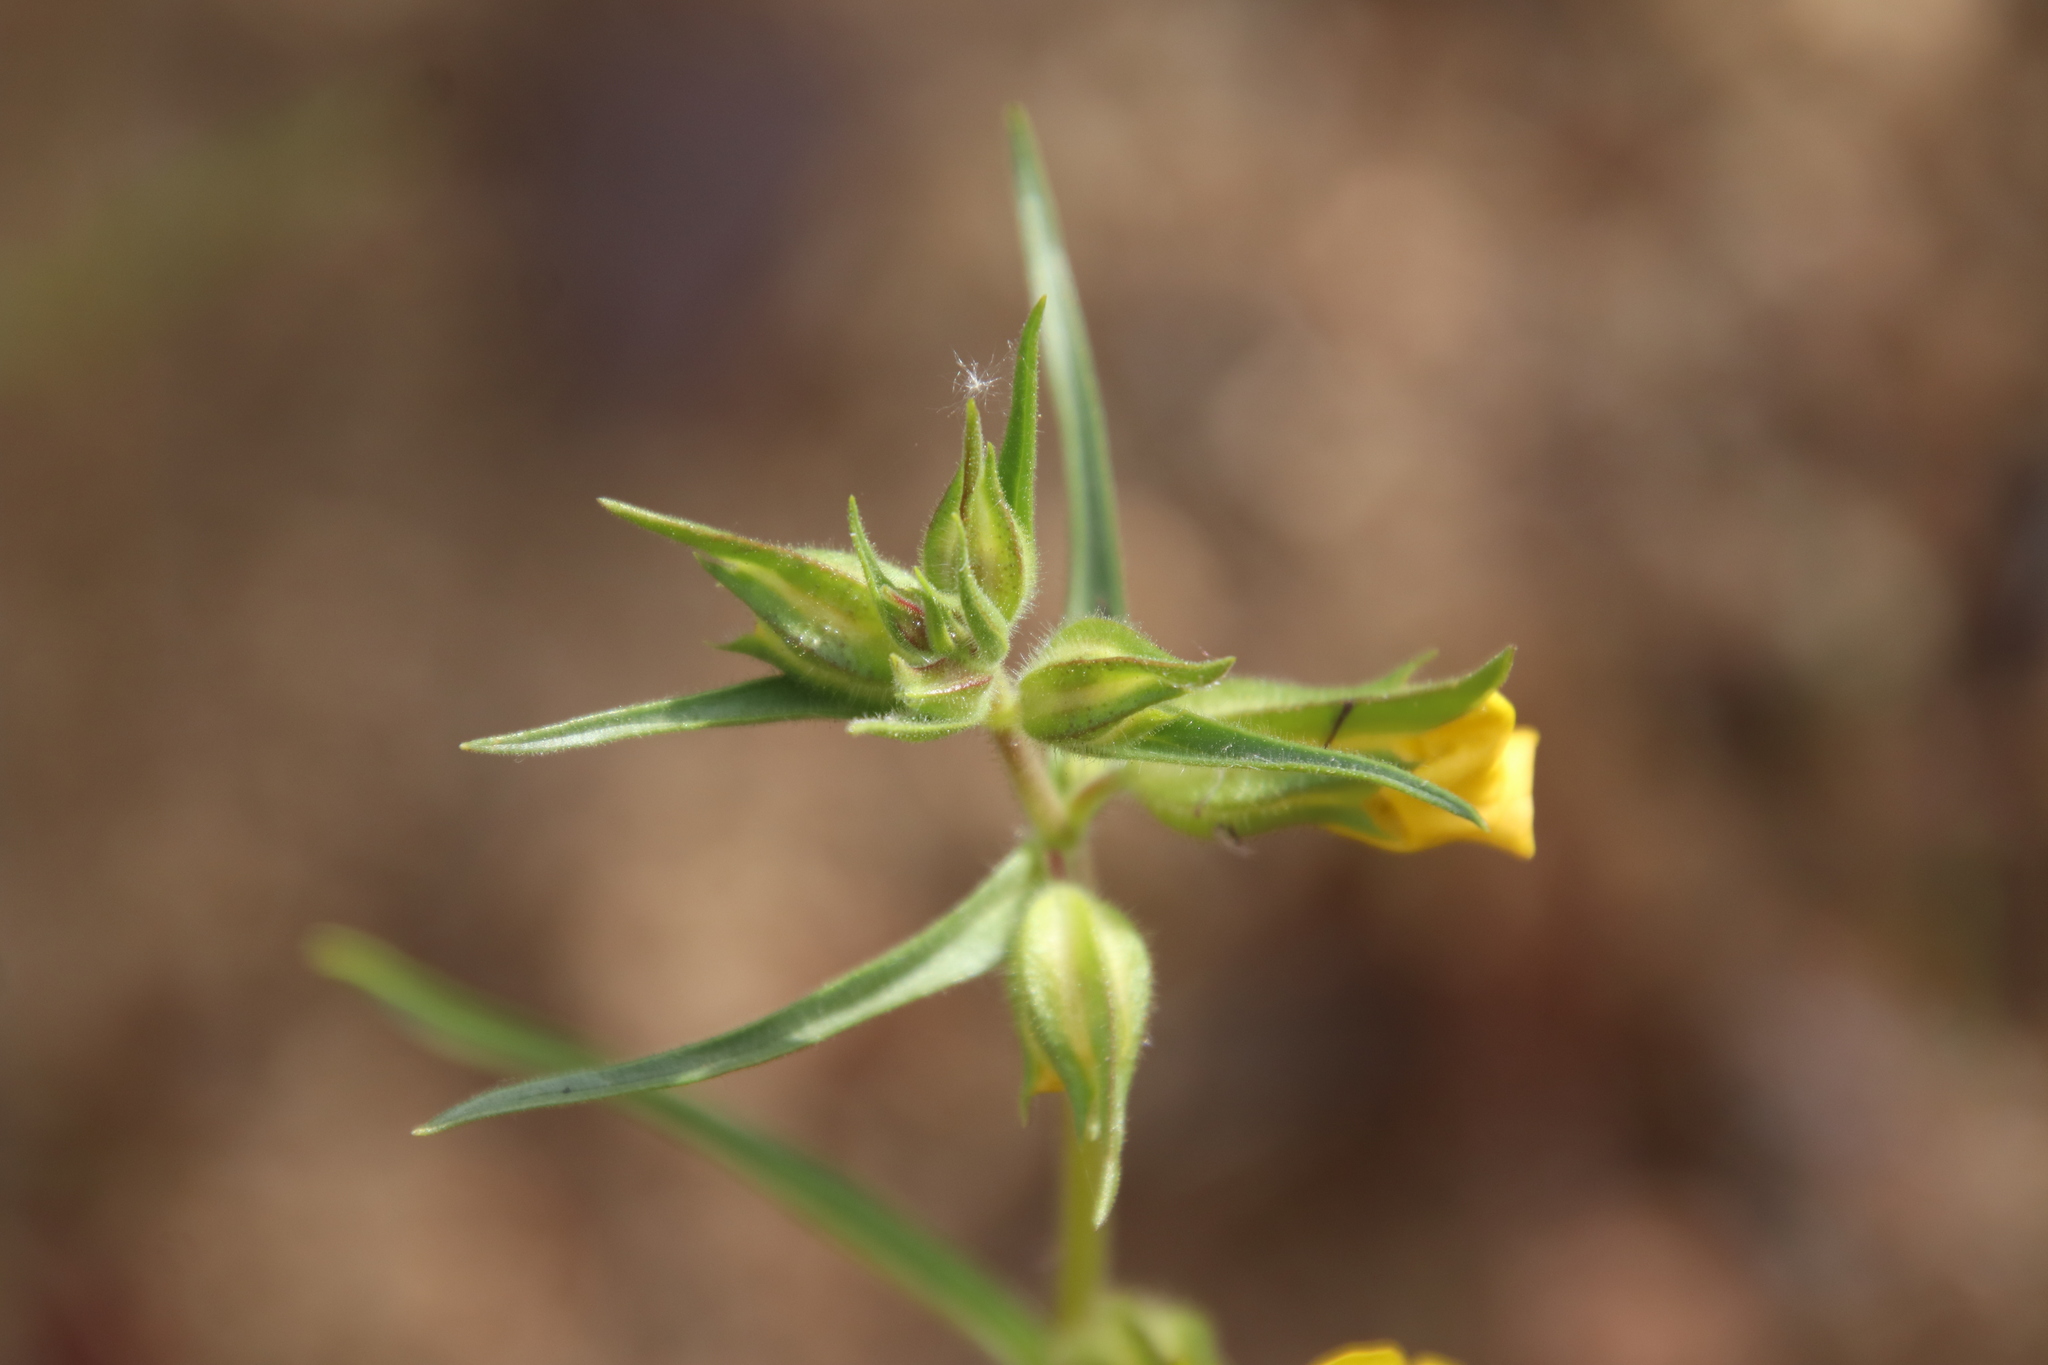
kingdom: Plantae
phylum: Tracheophyta
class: Magnoliopsida
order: Lamiales
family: Phrymaceae
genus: Diplacus
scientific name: Diplacus brevipes
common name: Wide-throat yellow monkey-flower
